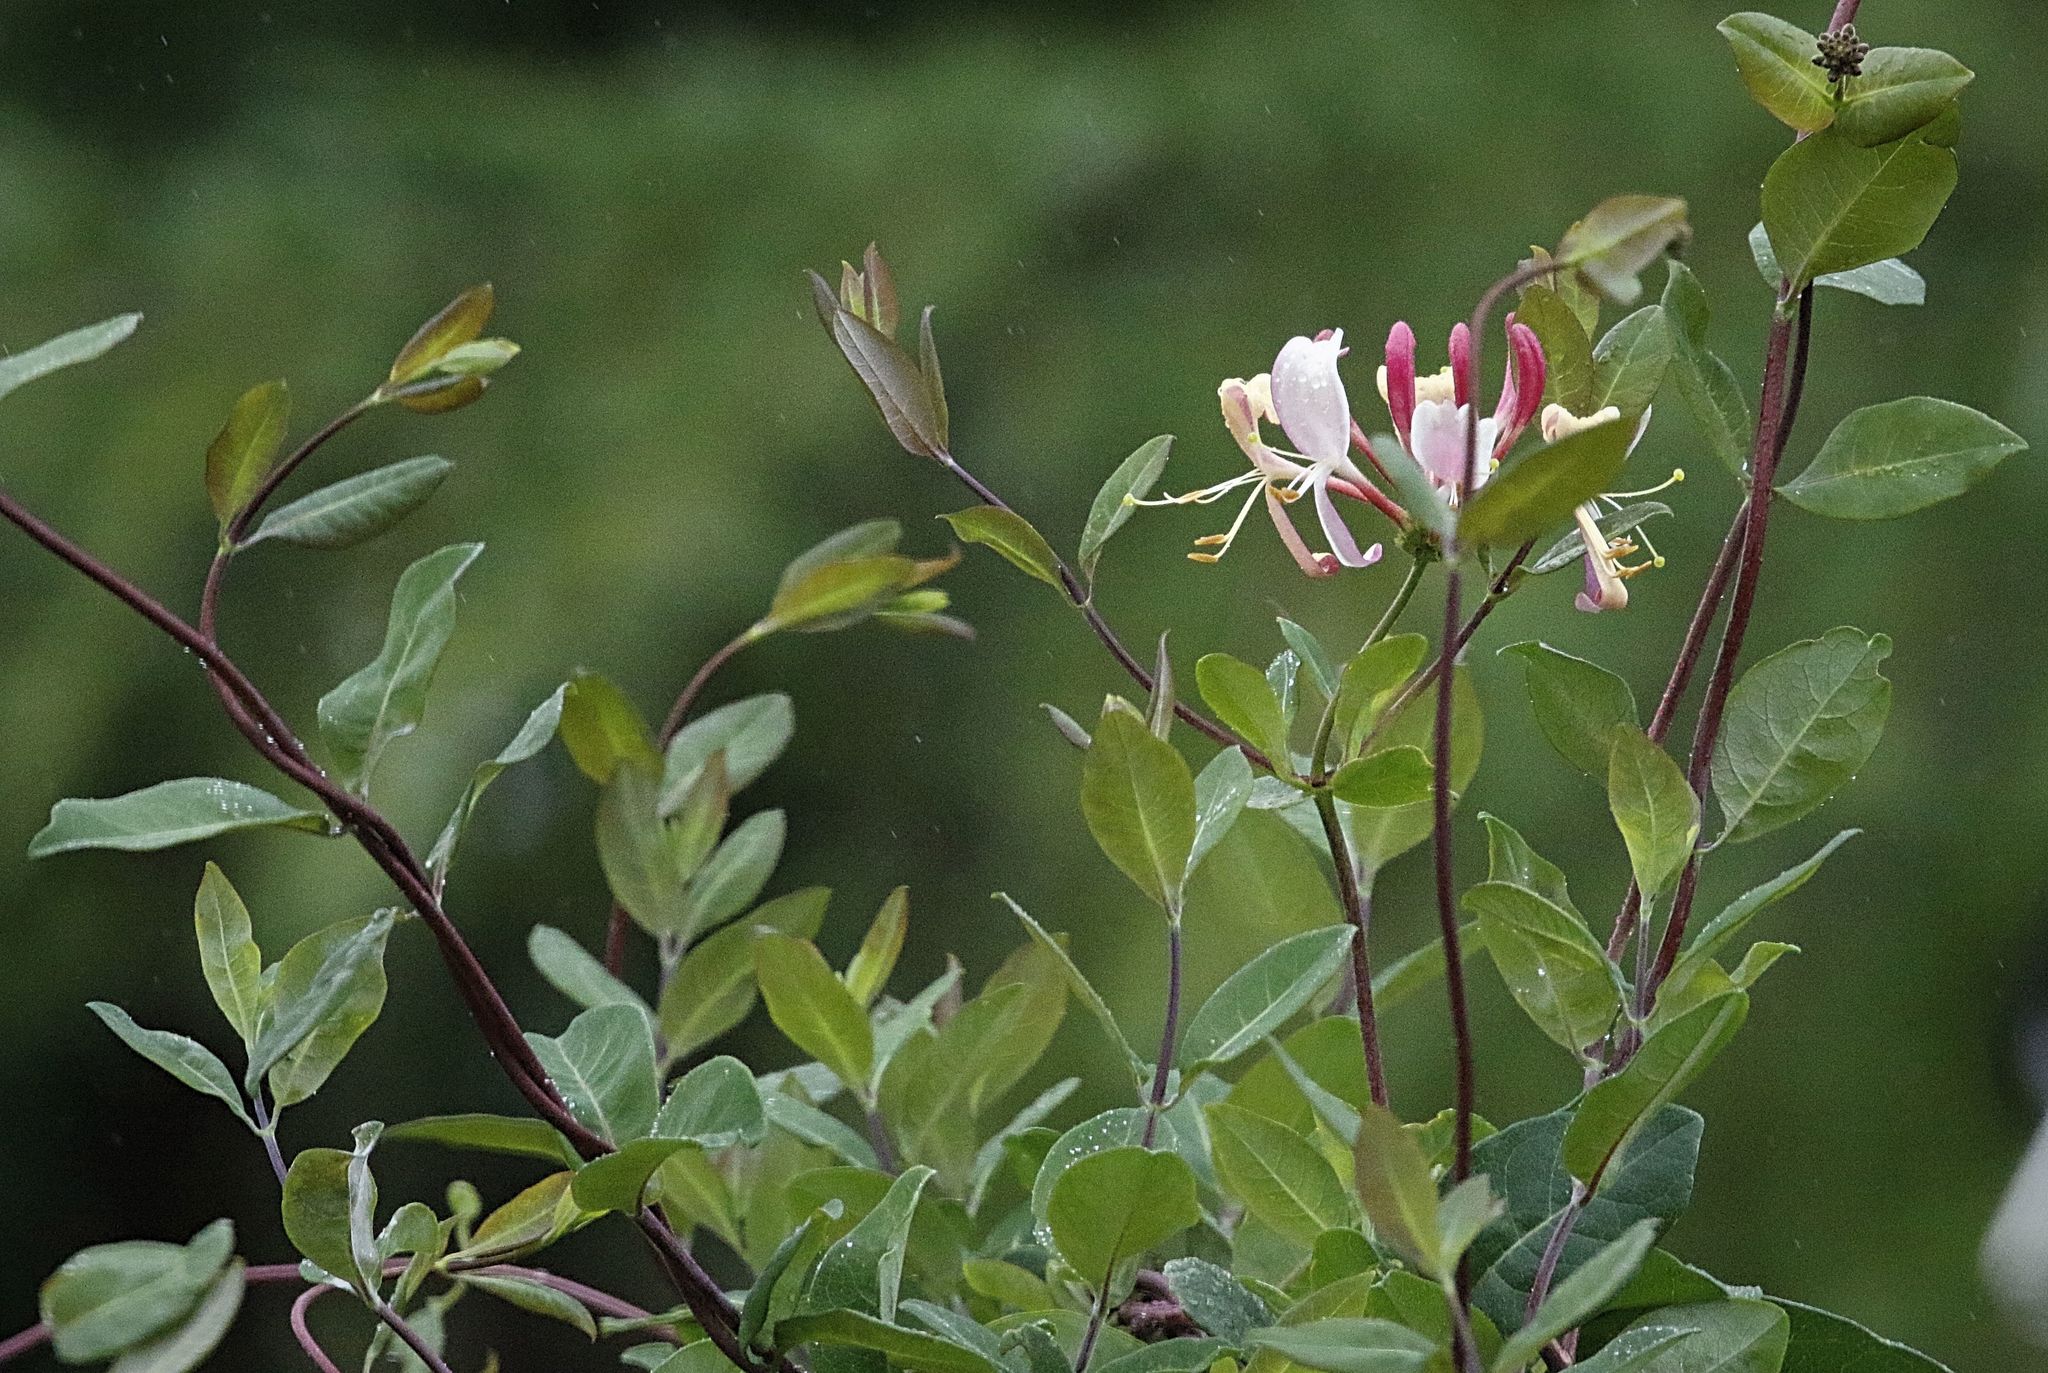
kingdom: Plantae
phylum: Tracheophyta
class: Magnoliopsida
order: Dipsacales
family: Caprifoliaceae
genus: Lonicera
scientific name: Lonicera periclymenum
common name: European honeysuckle
